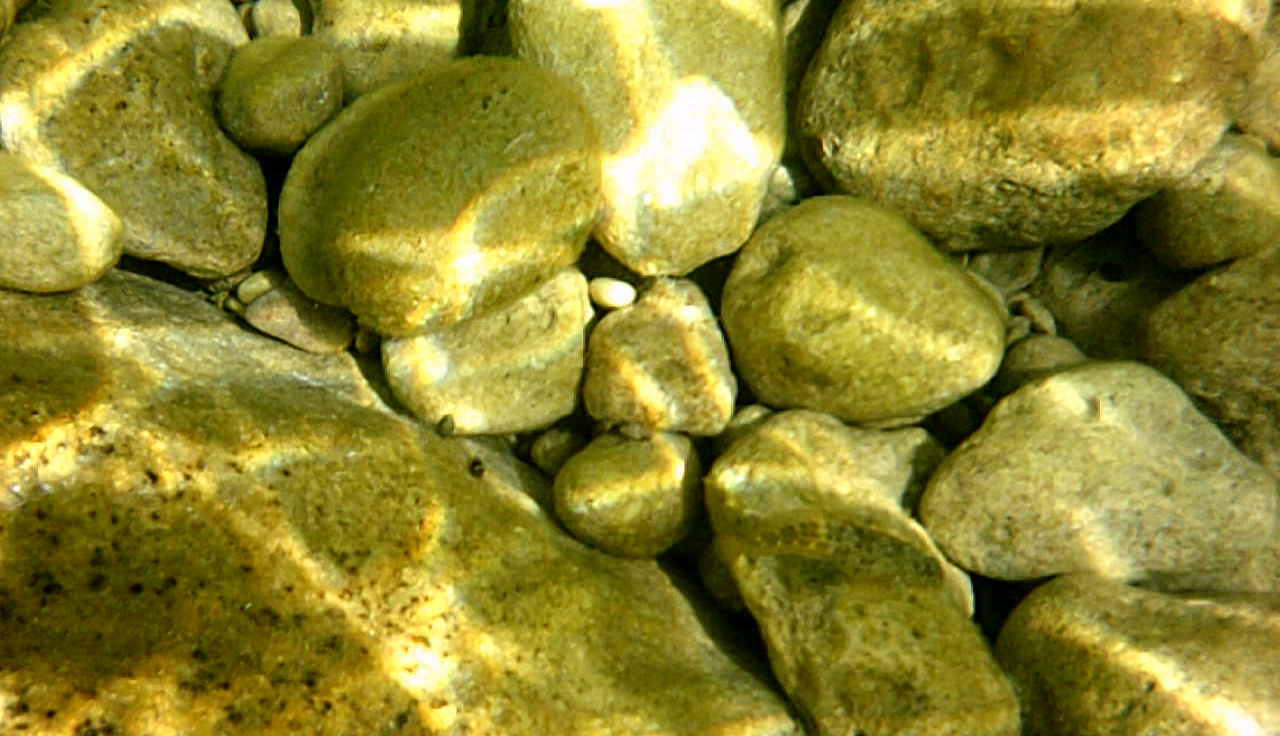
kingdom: Animalia
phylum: Chordata
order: Perciformes
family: Blenniidae
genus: Parablennius
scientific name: Parablennius sanguinolentus
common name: Black sea blenny
